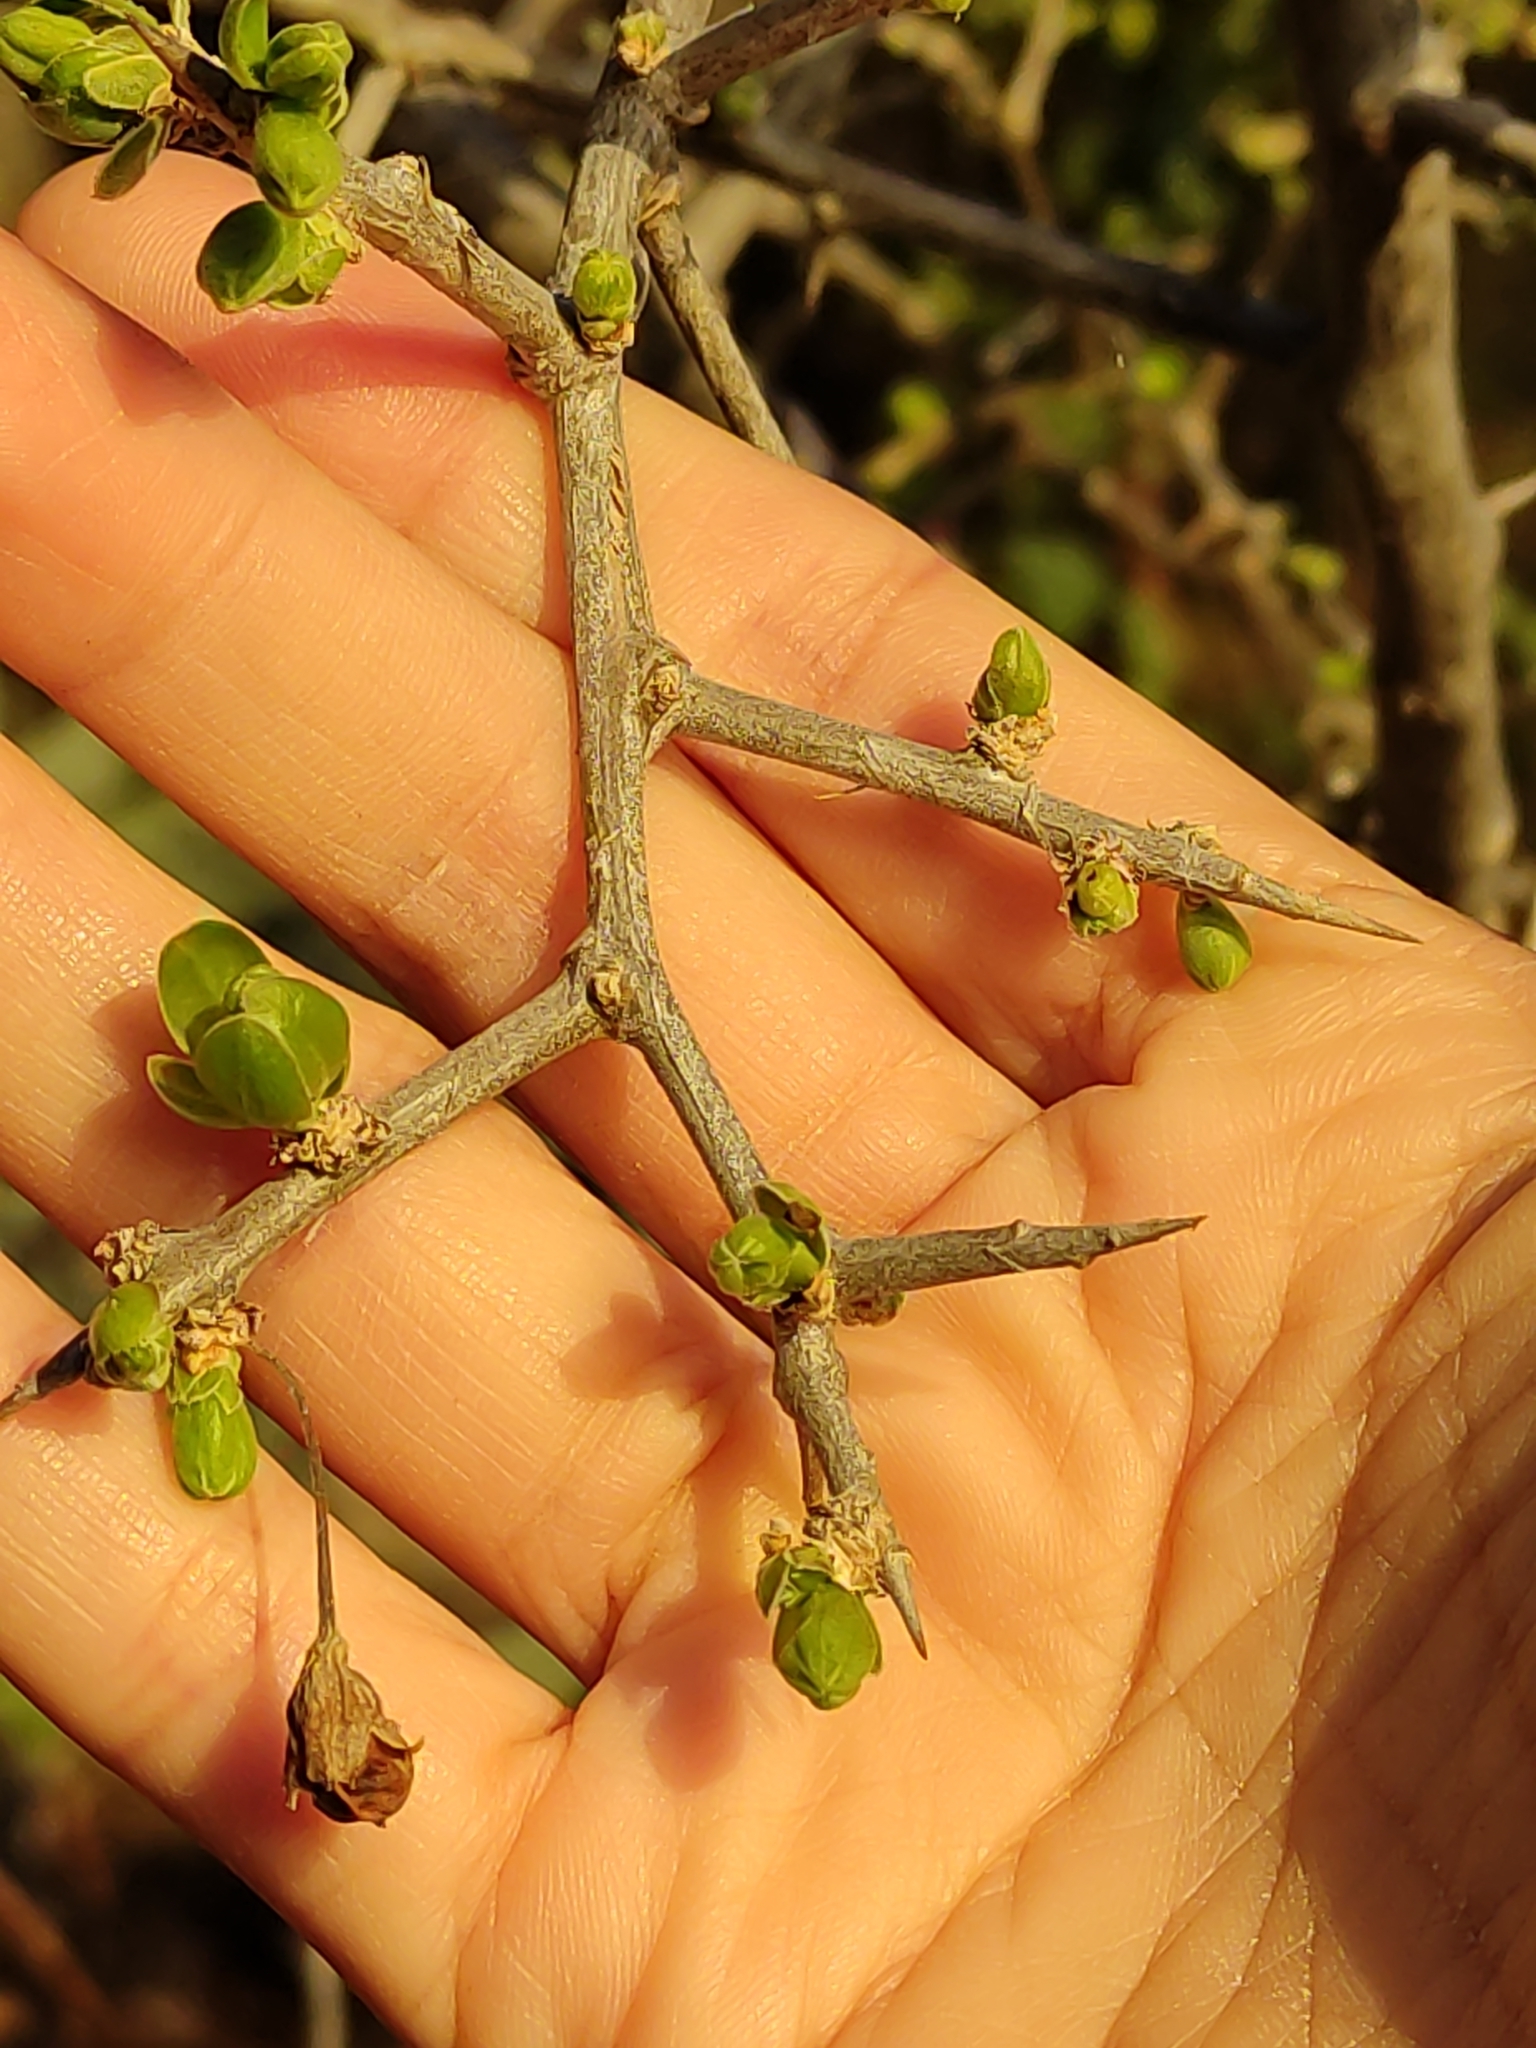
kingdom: Plantae
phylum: Tracheophyta
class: Magnoliopsida
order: Solanales
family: Solanaceae
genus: Lycium
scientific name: Lycium ferocissimum
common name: African boxthorn
